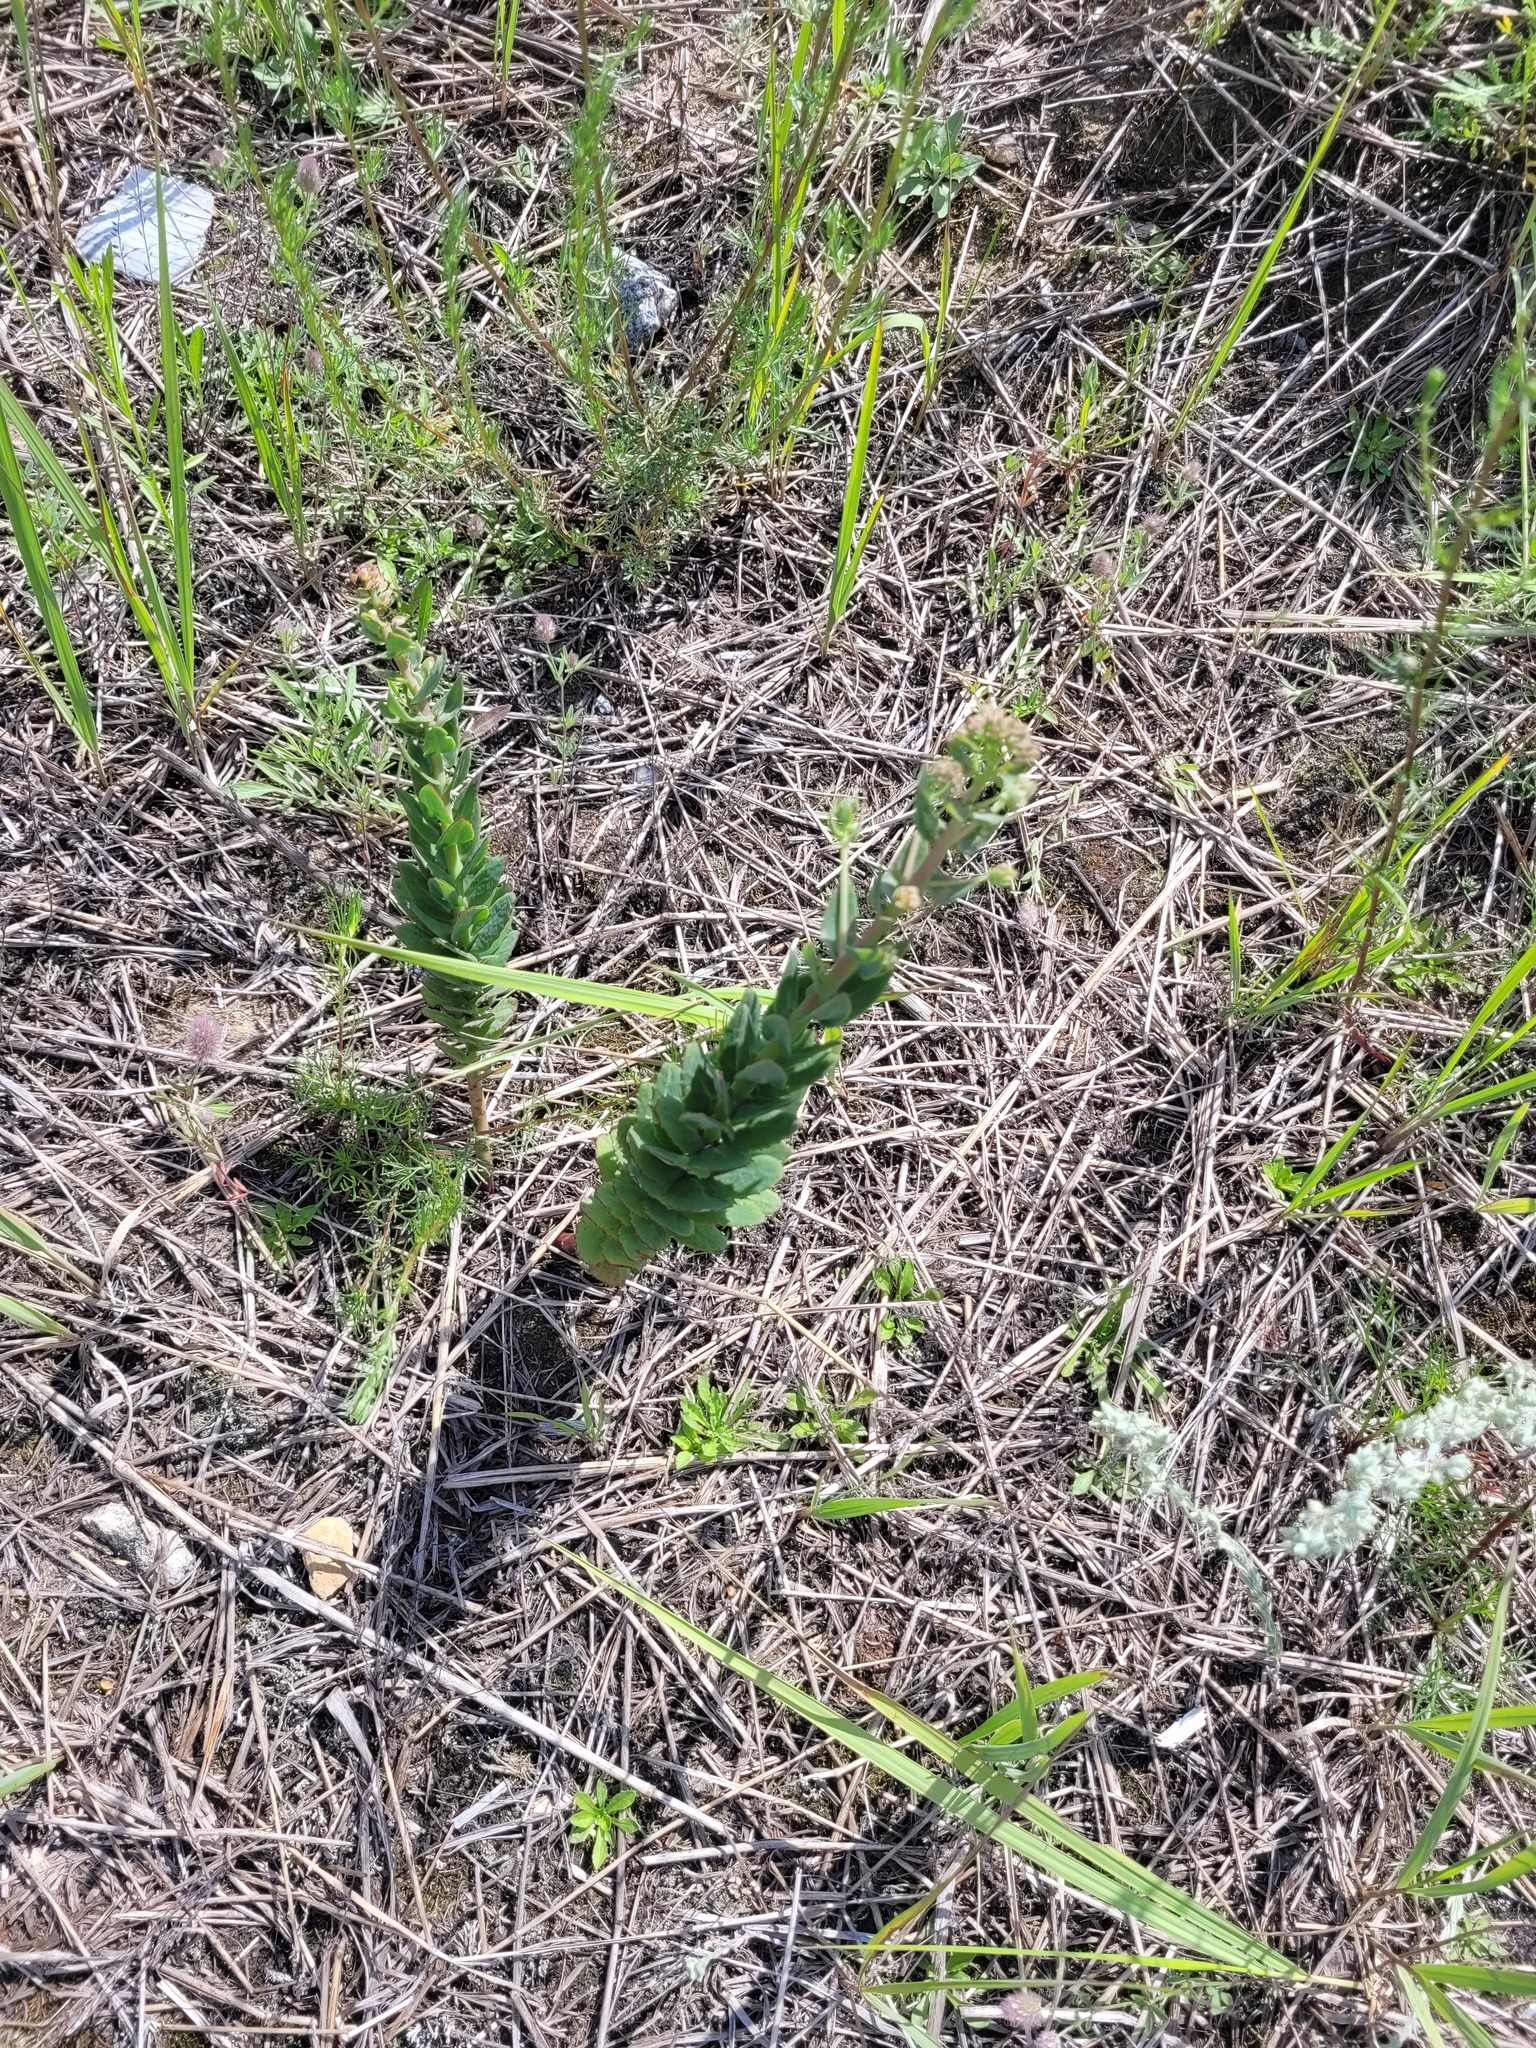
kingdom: Plantae
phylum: Tracheophyta
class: Magnoliopsida
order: Saxifragales
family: Crassulaceae
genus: Hylotelephium
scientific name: Hylotelephium maximum
